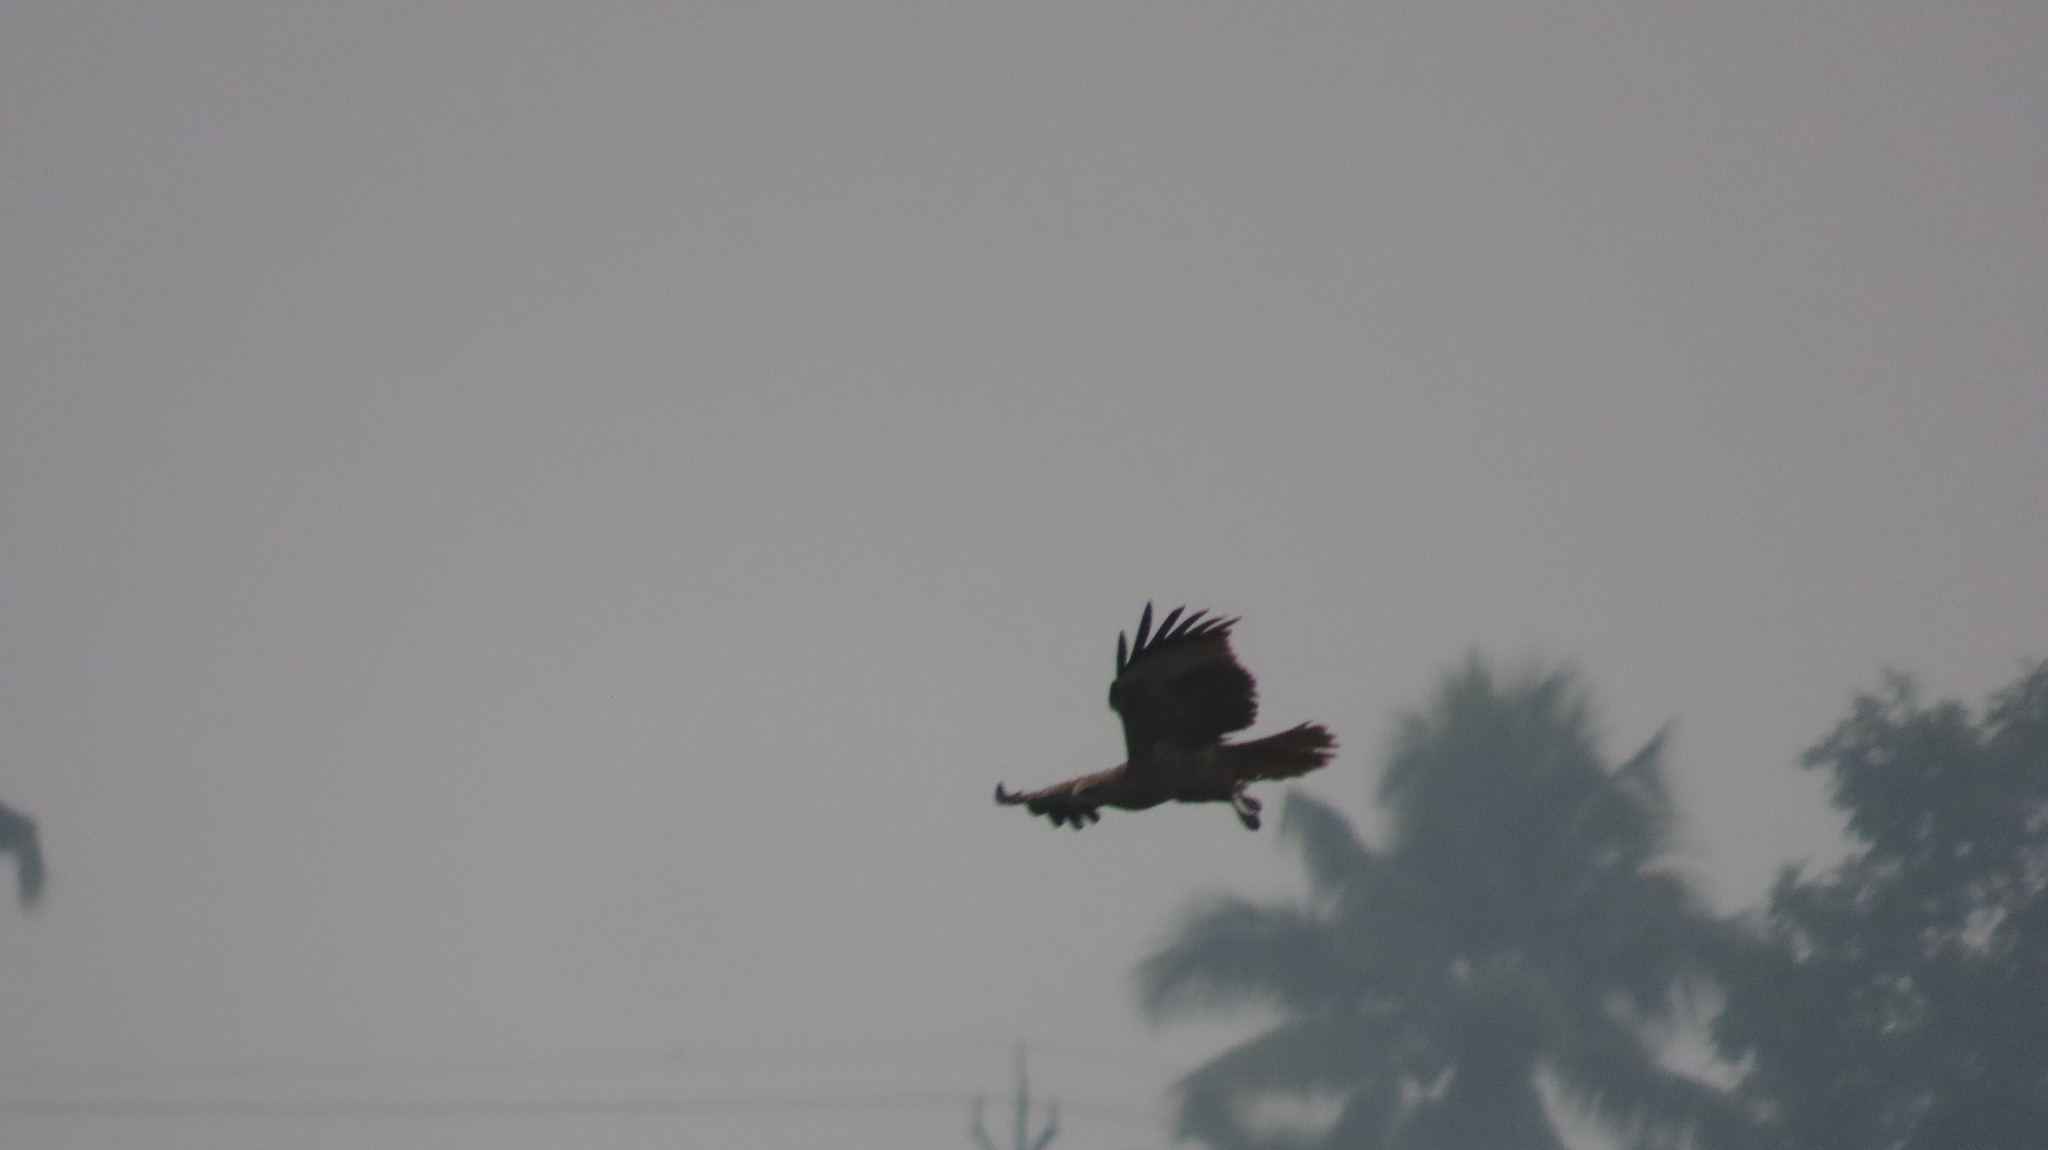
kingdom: Animalia
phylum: Chordata
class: Aves
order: Accipitriformes
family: Accipitridae
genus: Haliastur
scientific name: Haliastur indus
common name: Brahminy kite
